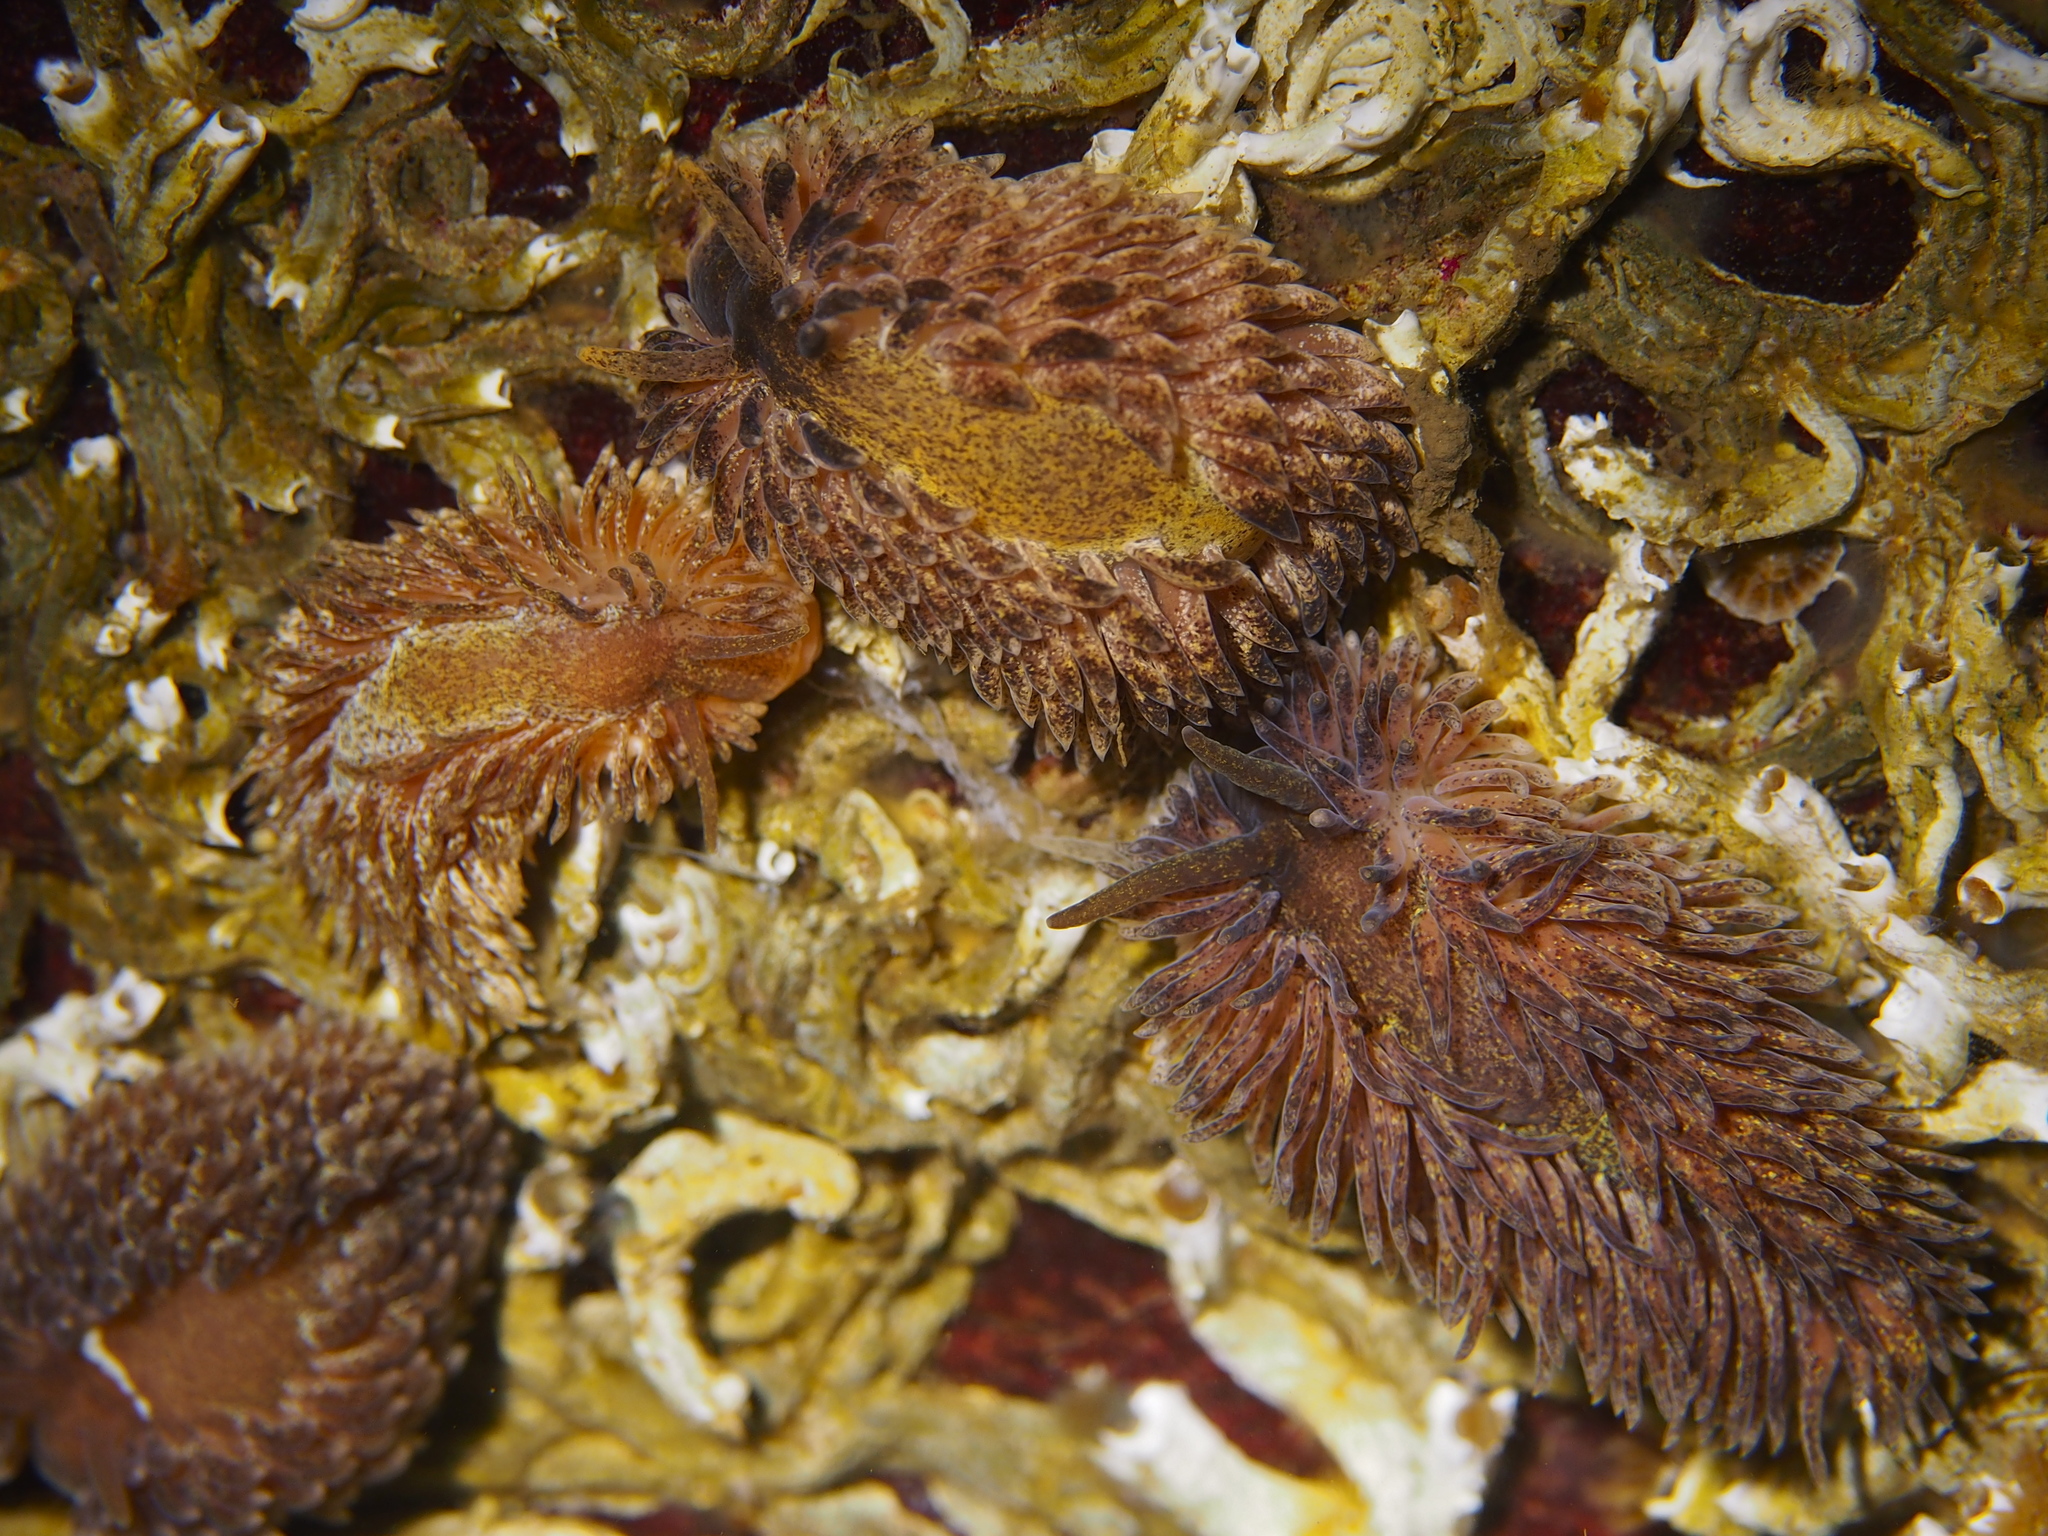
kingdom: Animalia
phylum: Mollusca
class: Gastropoda
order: Nudibranchia
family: Aeolidiidae
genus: Aeolidia
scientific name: Aeolidia papillosa
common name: Common grey sea slug
